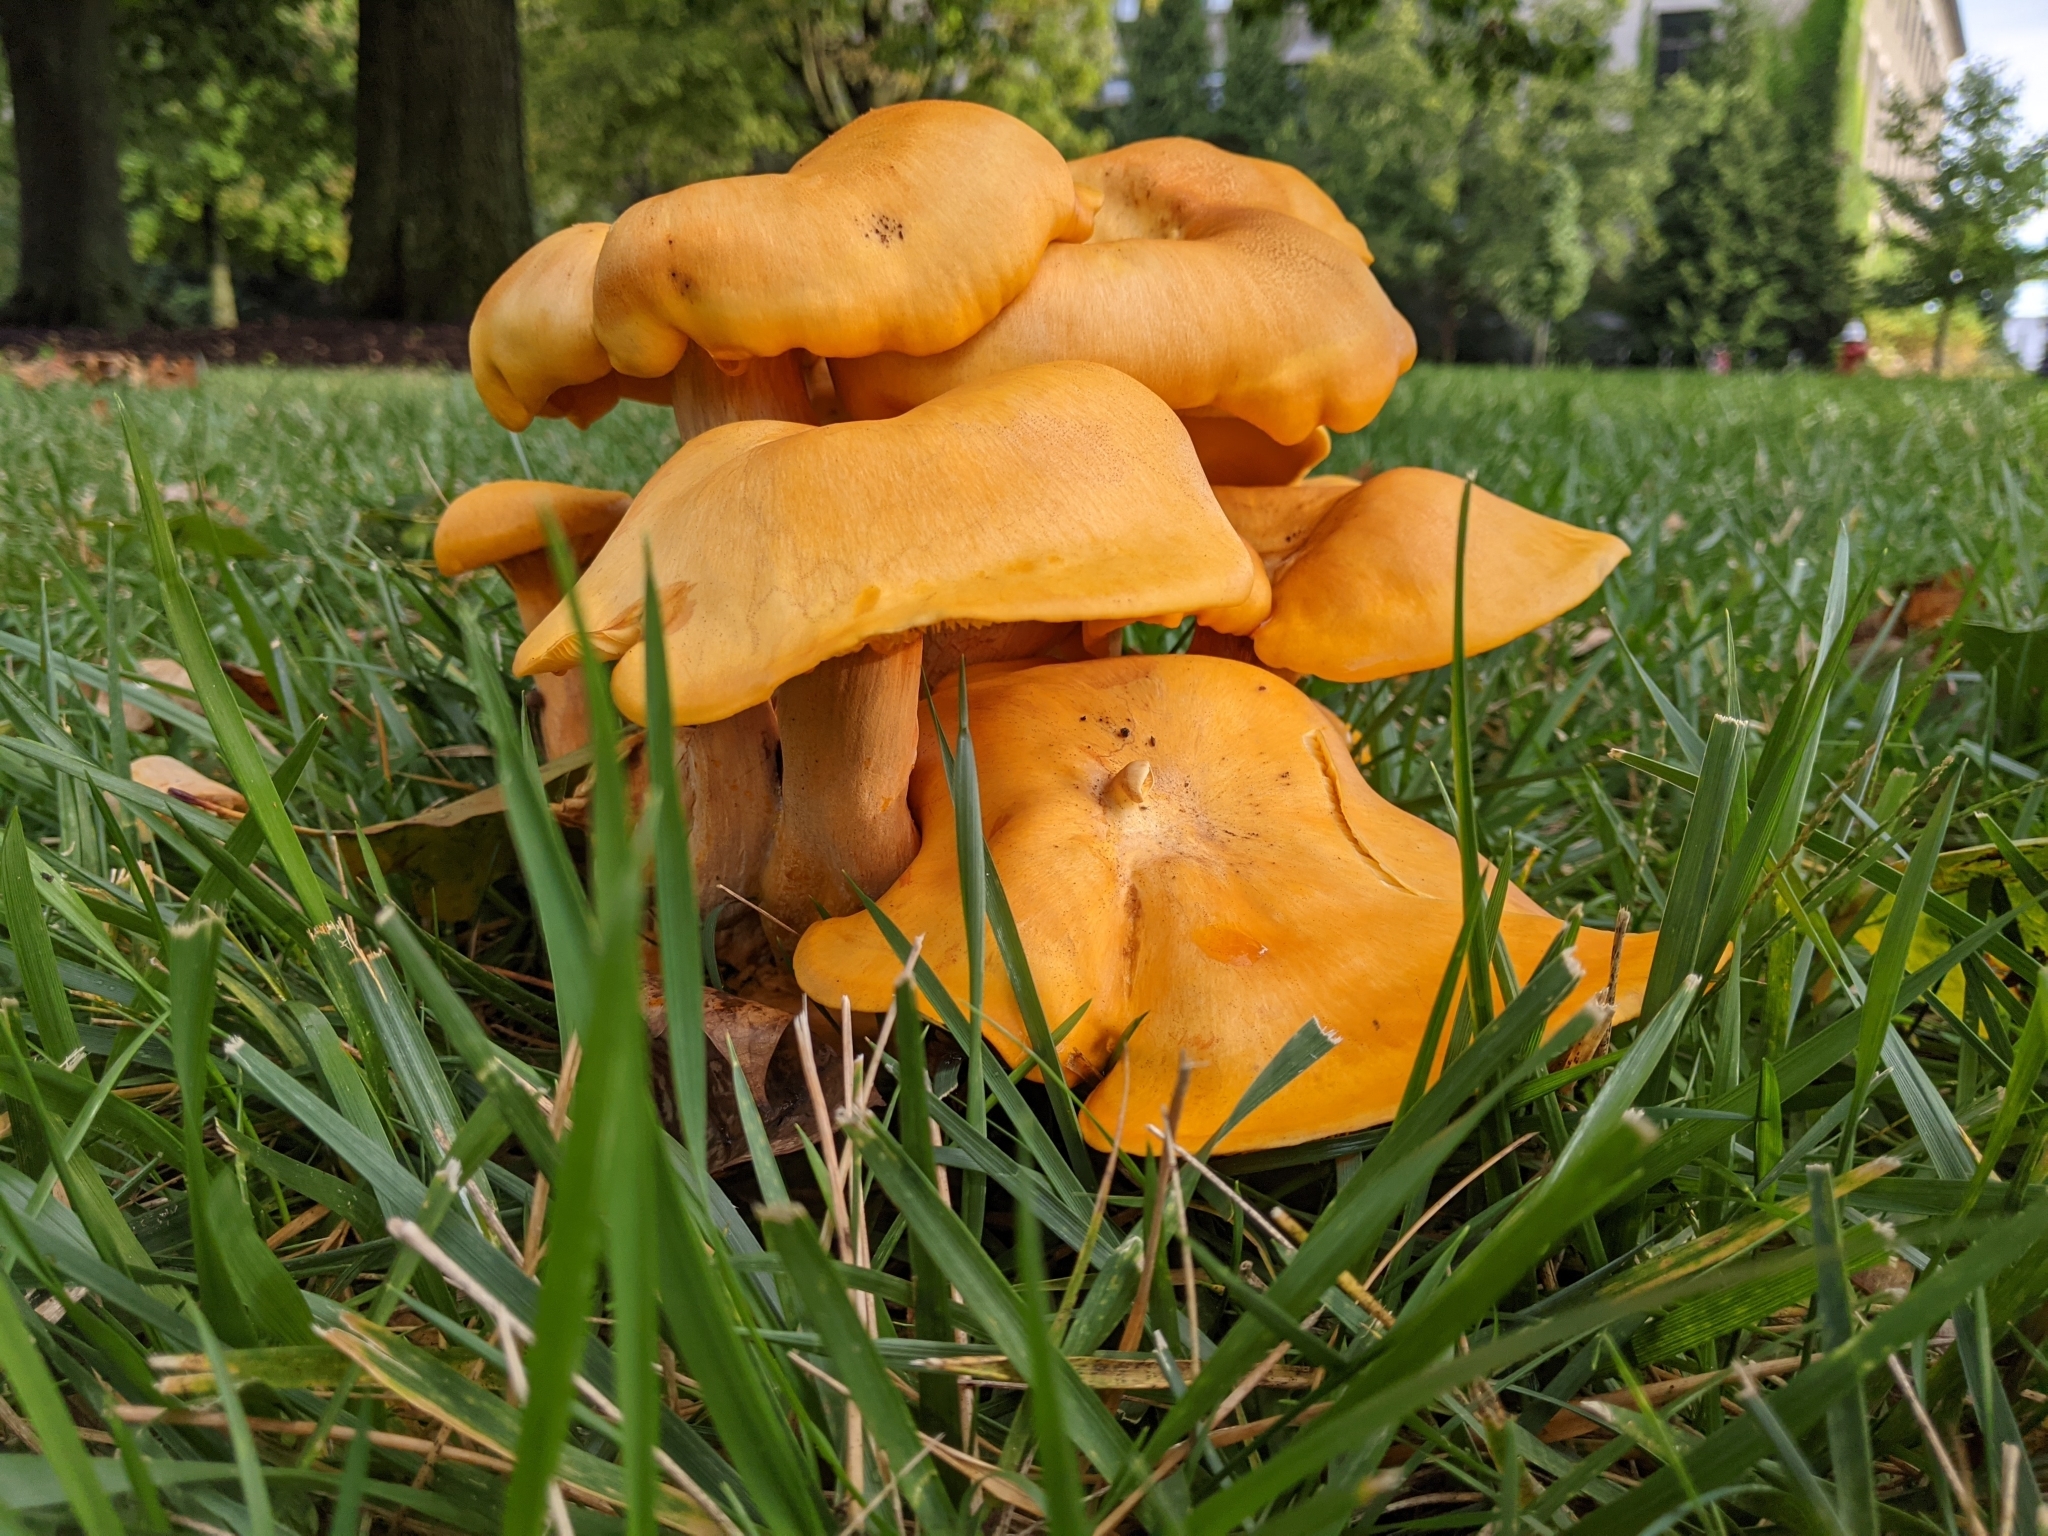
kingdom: Fungi
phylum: Basidiomycota
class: Agaricomycetes
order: Agaricales
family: Omphalotaceae
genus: Omphalotus
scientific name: Omphalotus illudens
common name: Jack o lantern
